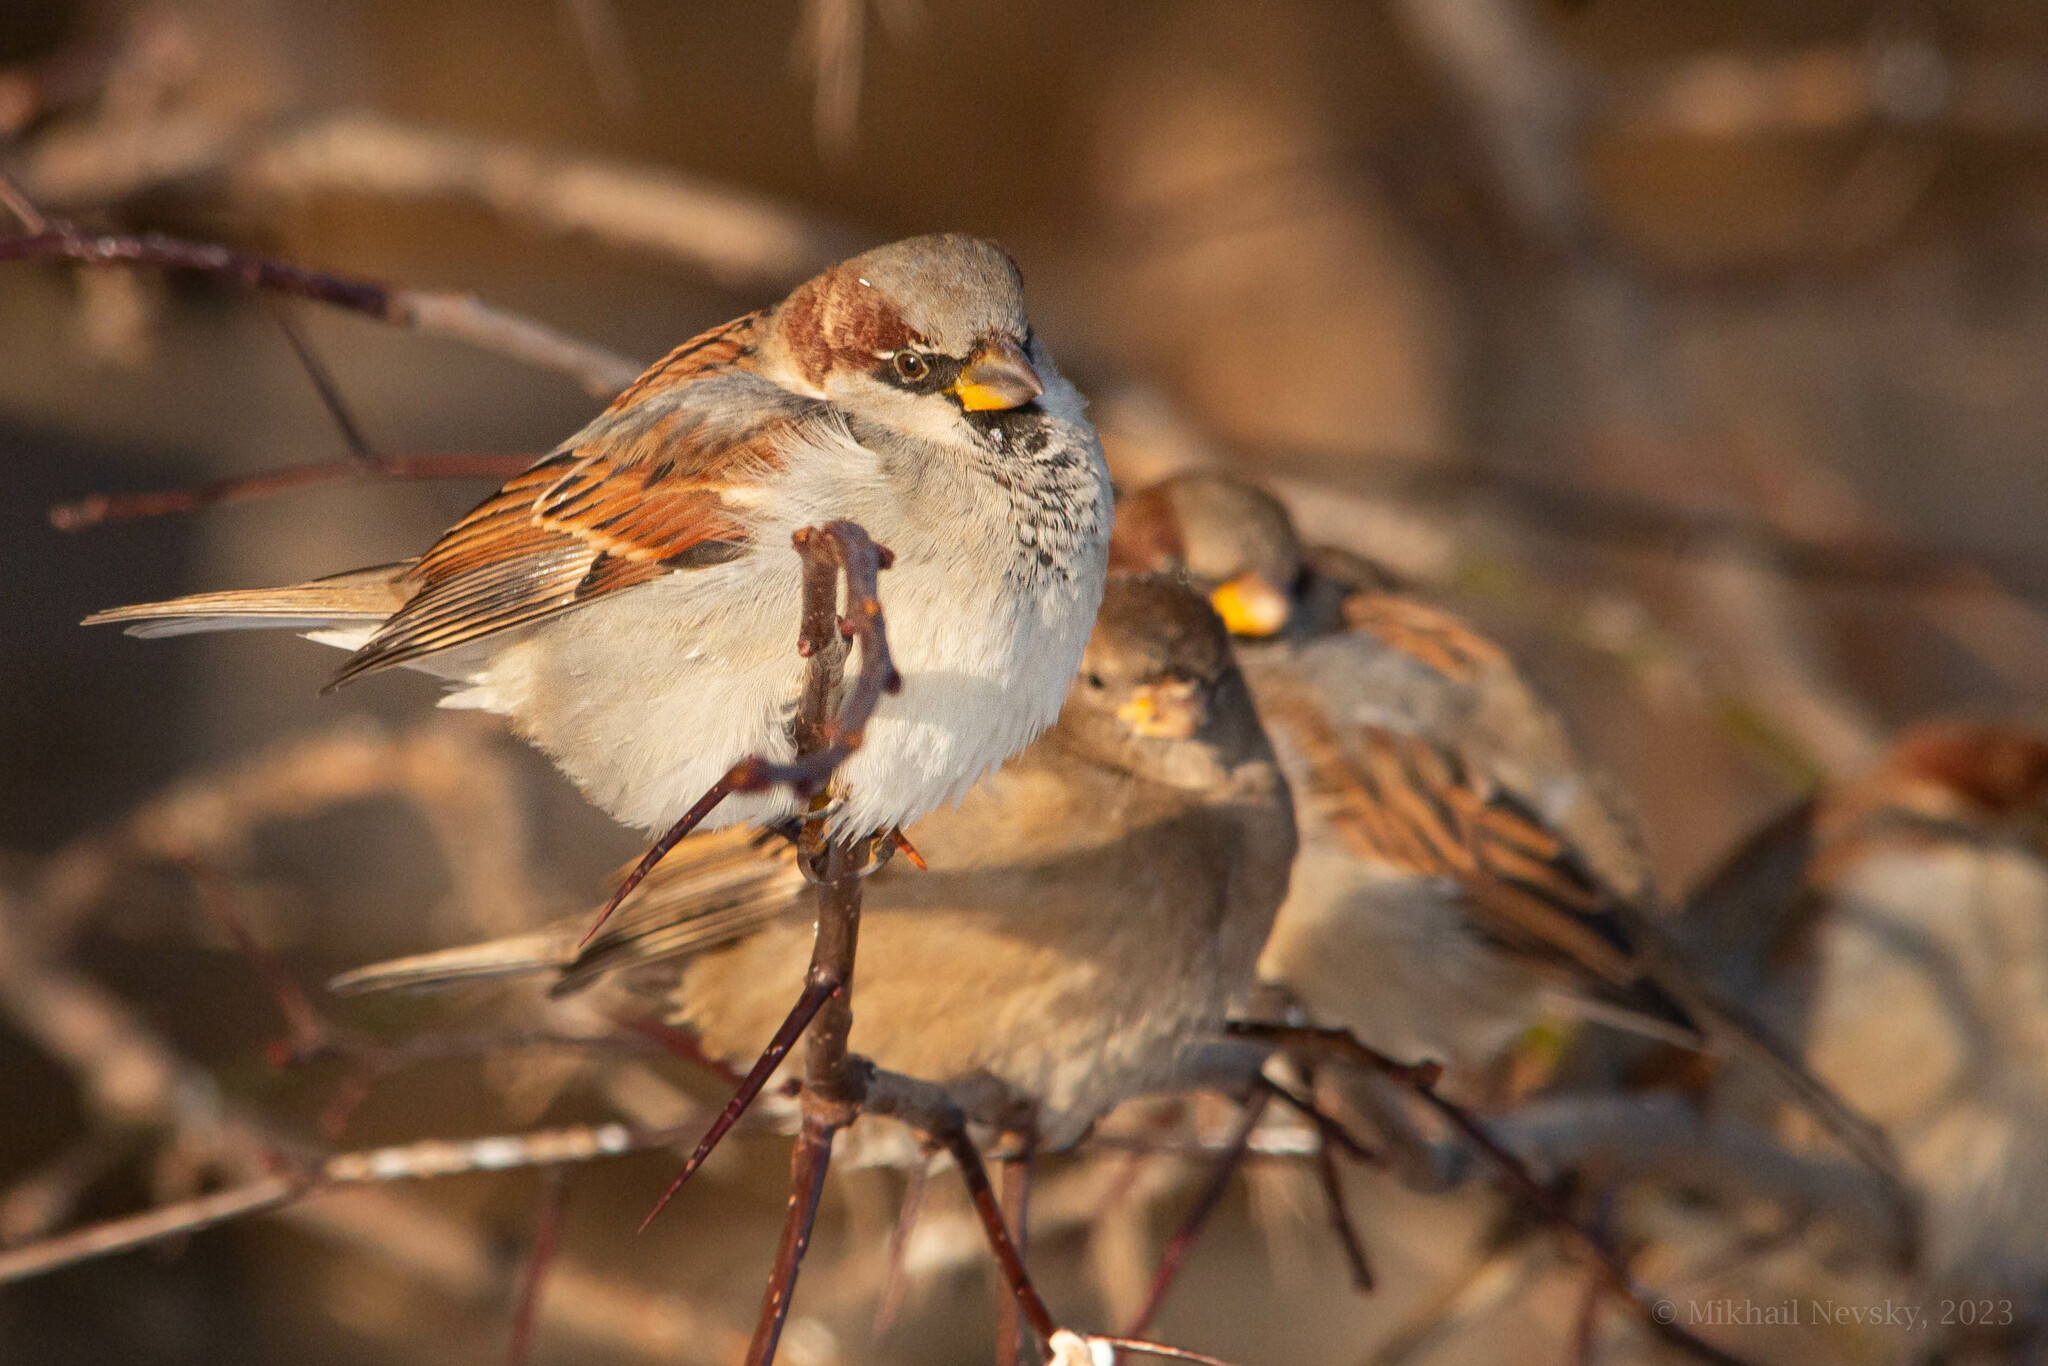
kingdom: Animalia
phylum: Chordata
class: Aves
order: Passeriformes
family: Passeridae
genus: Passer
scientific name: Passer domesticus
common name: House sparrow
